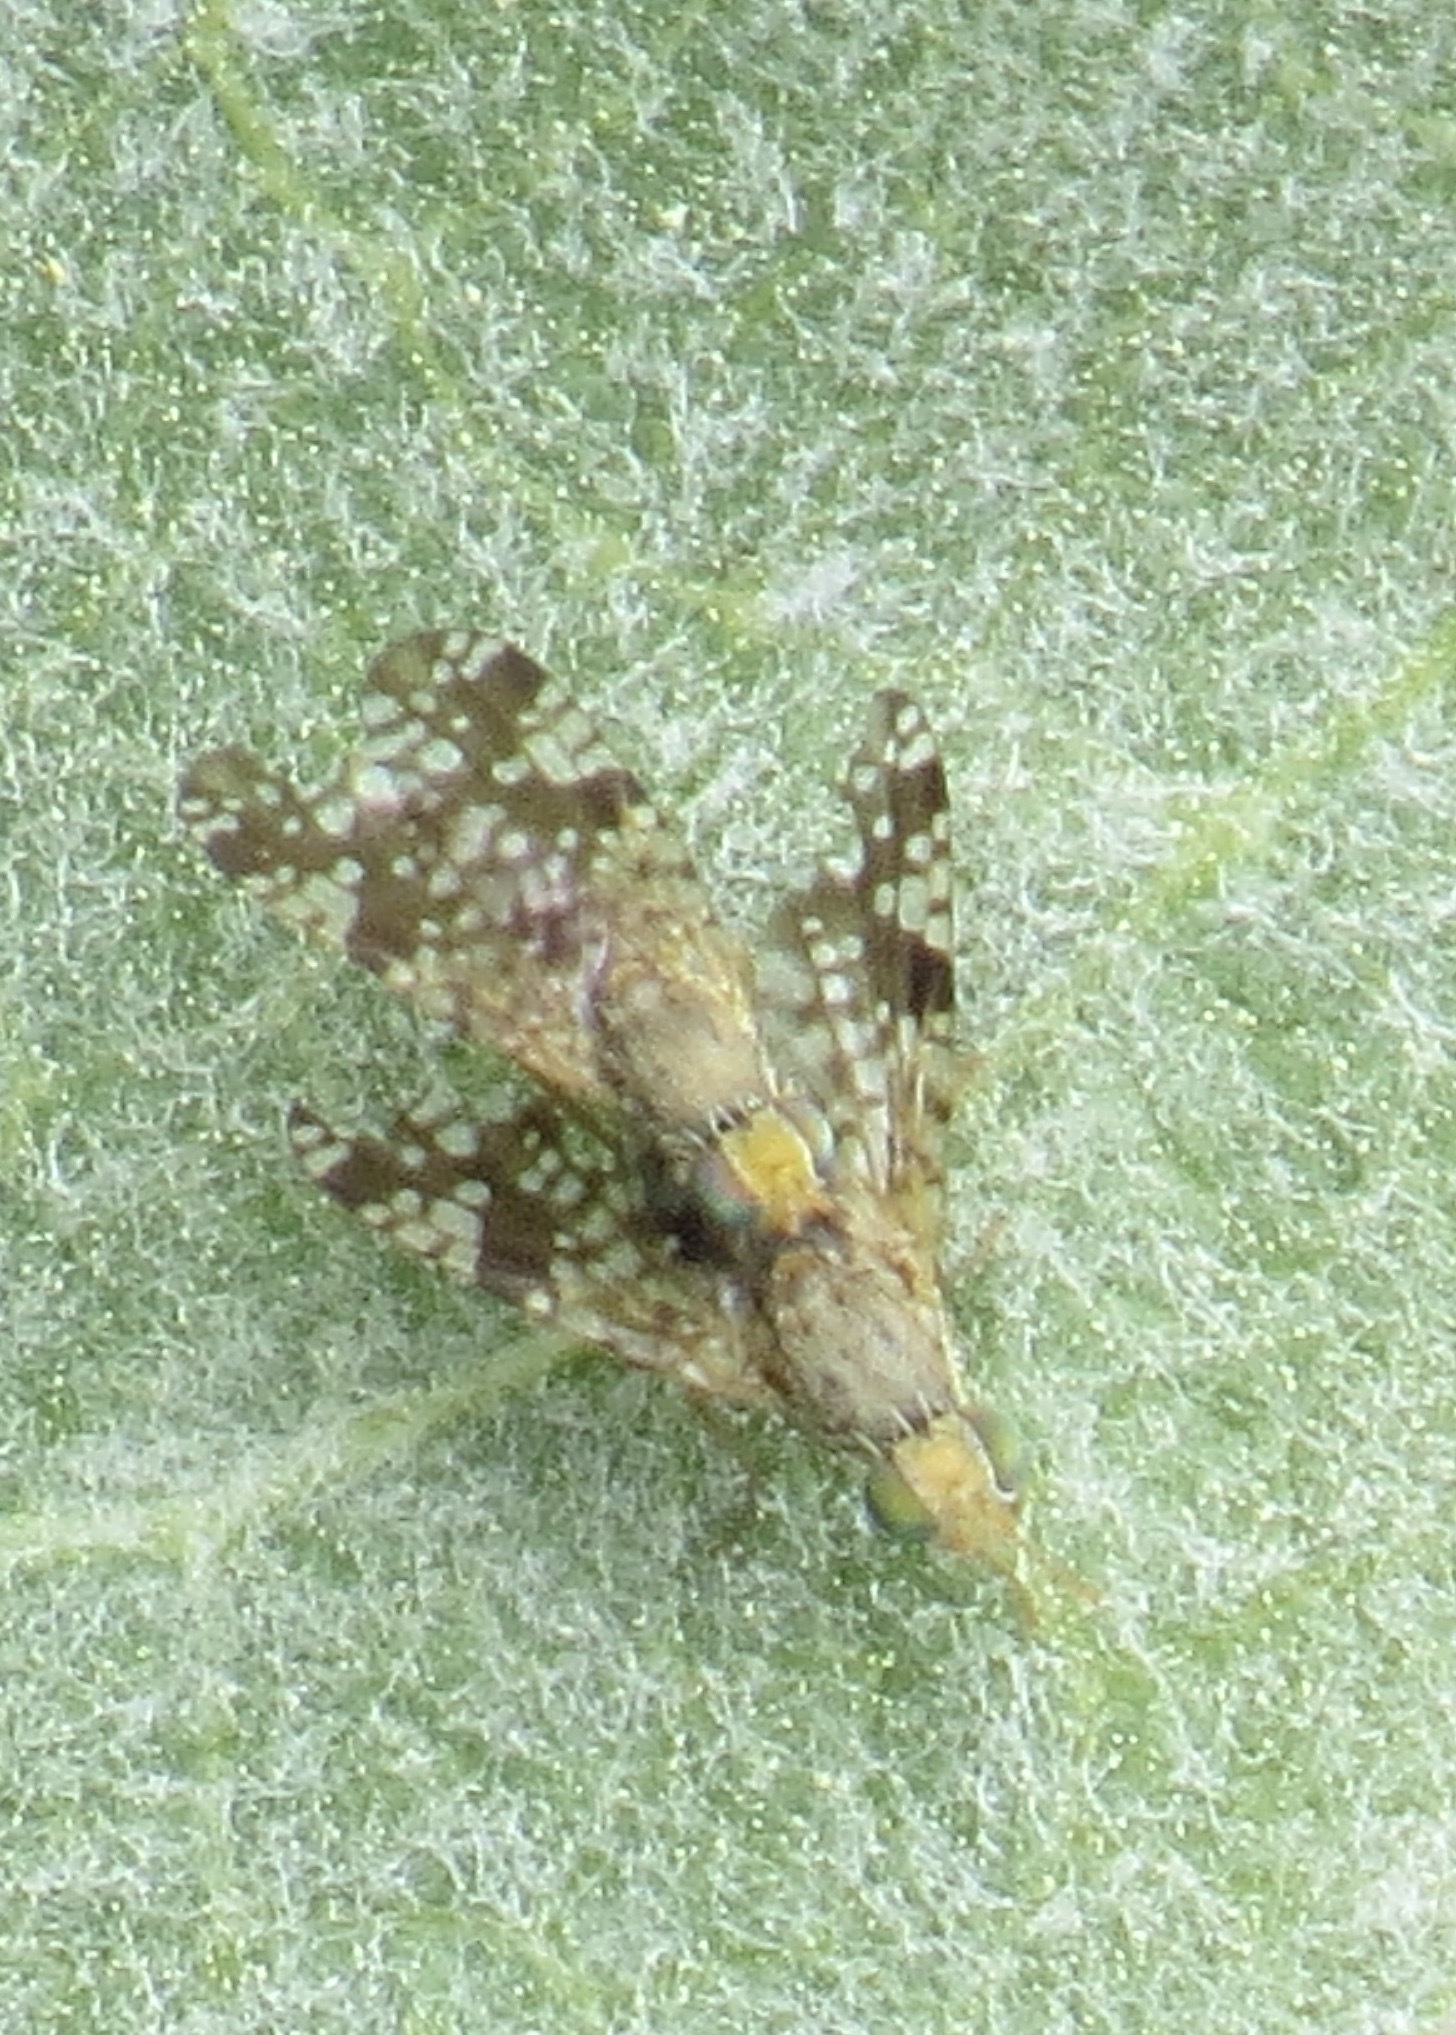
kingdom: Animalia
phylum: Arthropoda
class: Insecta
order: Diptera
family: Tephritidae
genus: Neotephritis
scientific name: Neotephritis finalis
